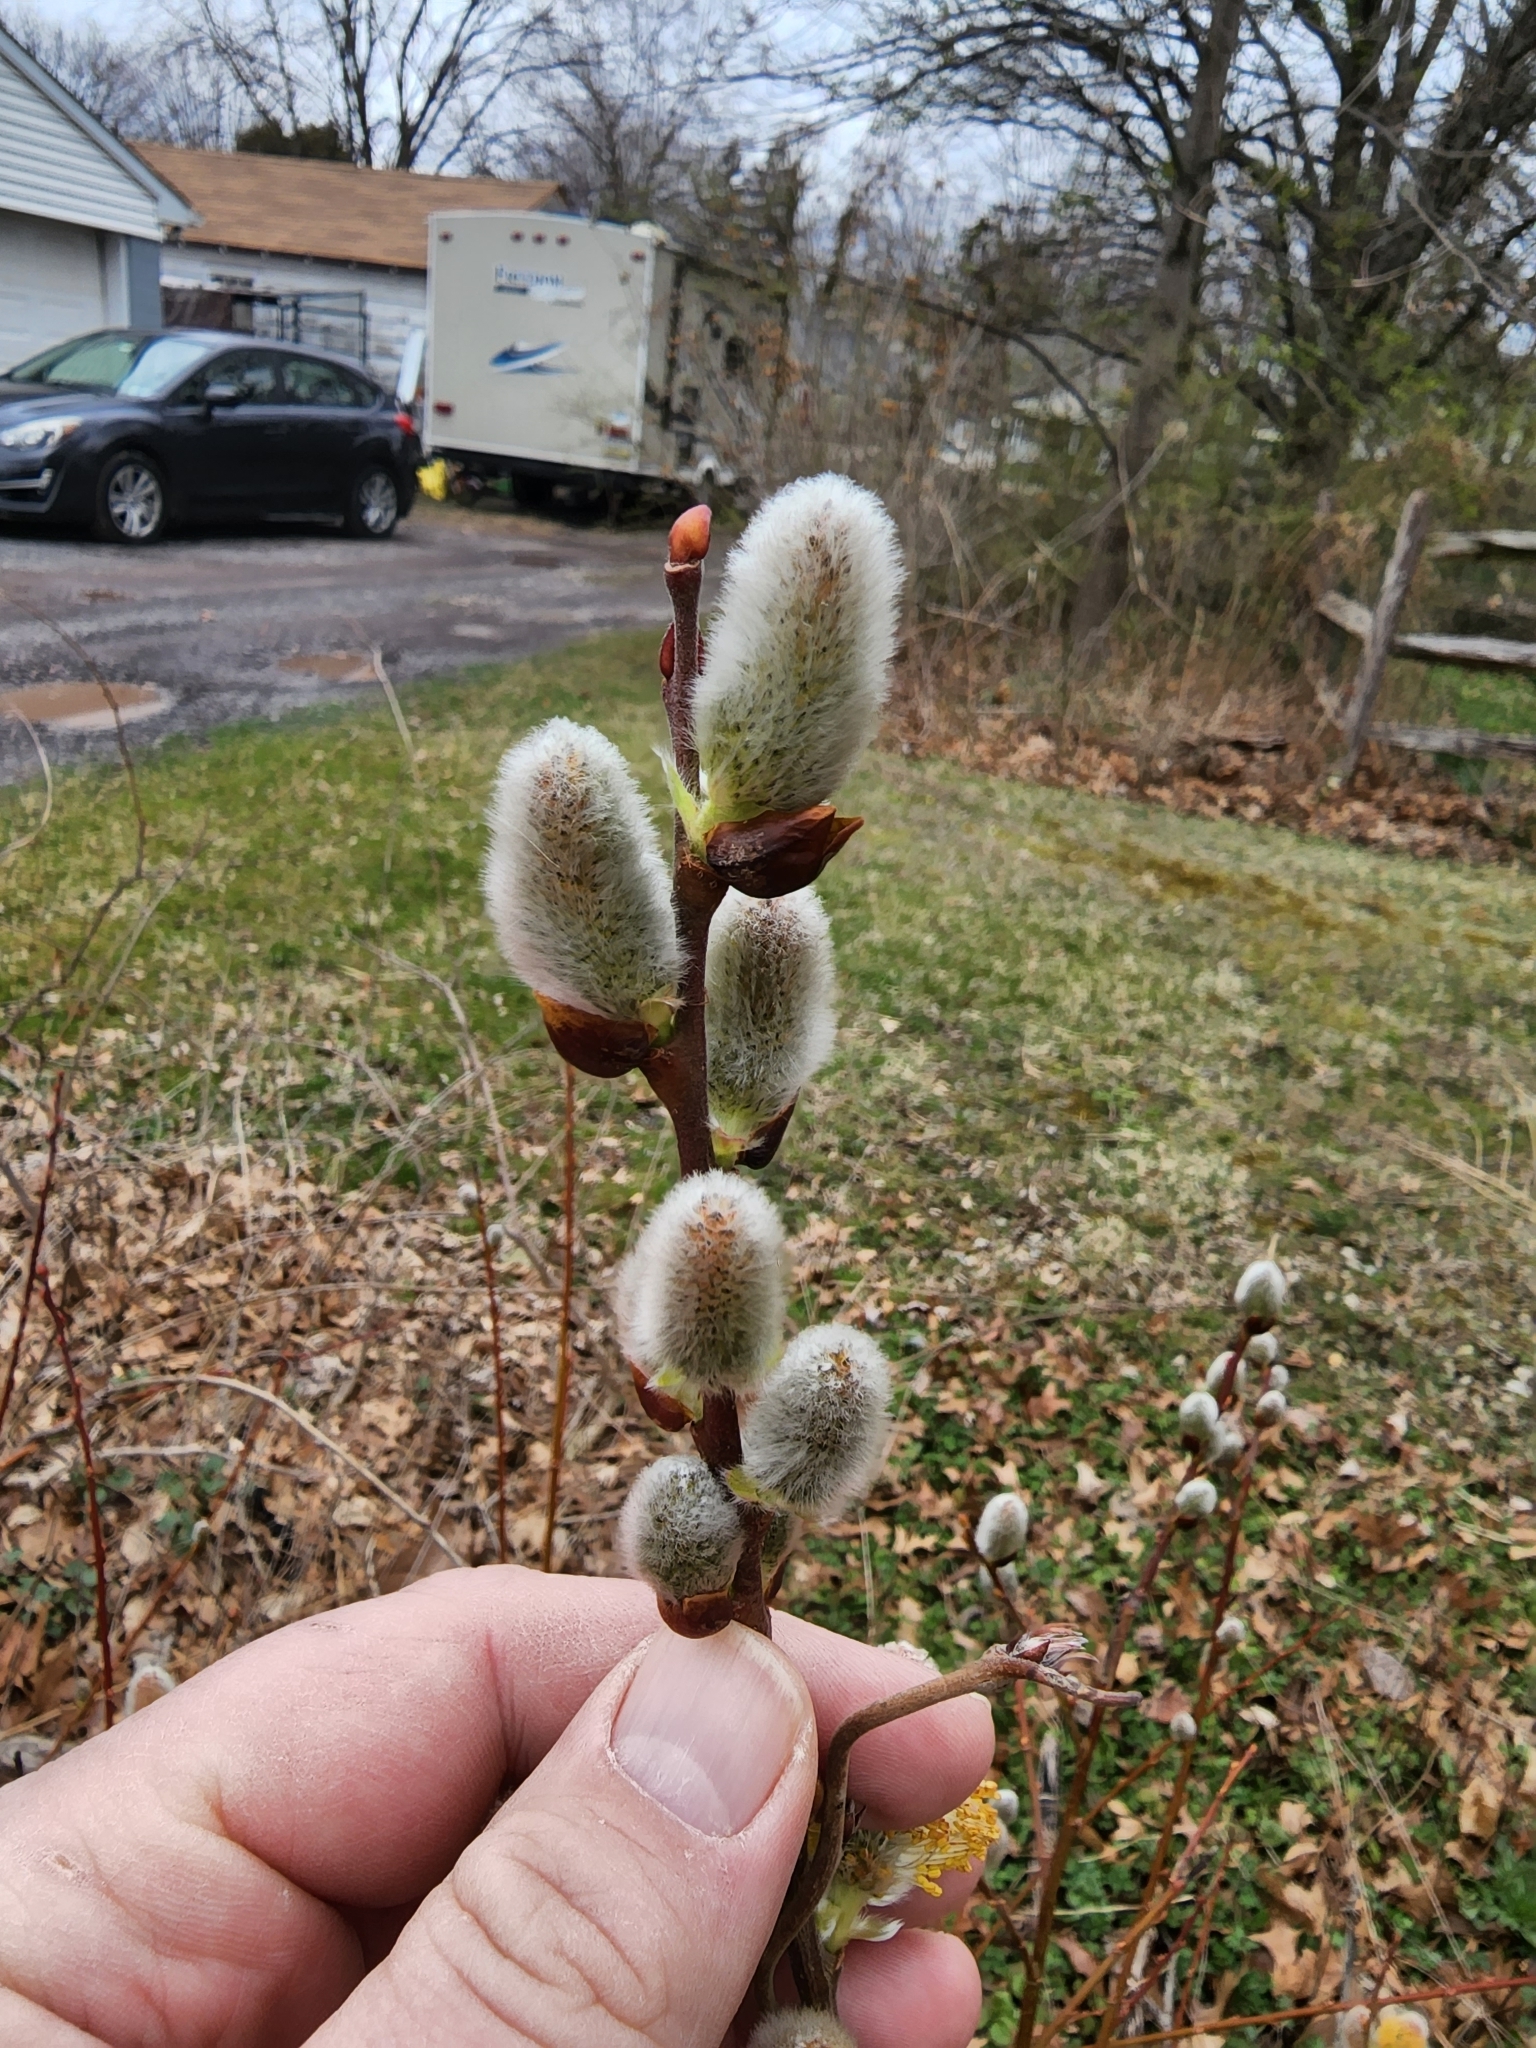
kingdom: Plantae
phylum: Tracheophyta
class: Magnoliopsida
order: Malpighiales
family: Salicaceae
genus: Salix
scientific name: Salix discolor
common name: Glaucous willow
